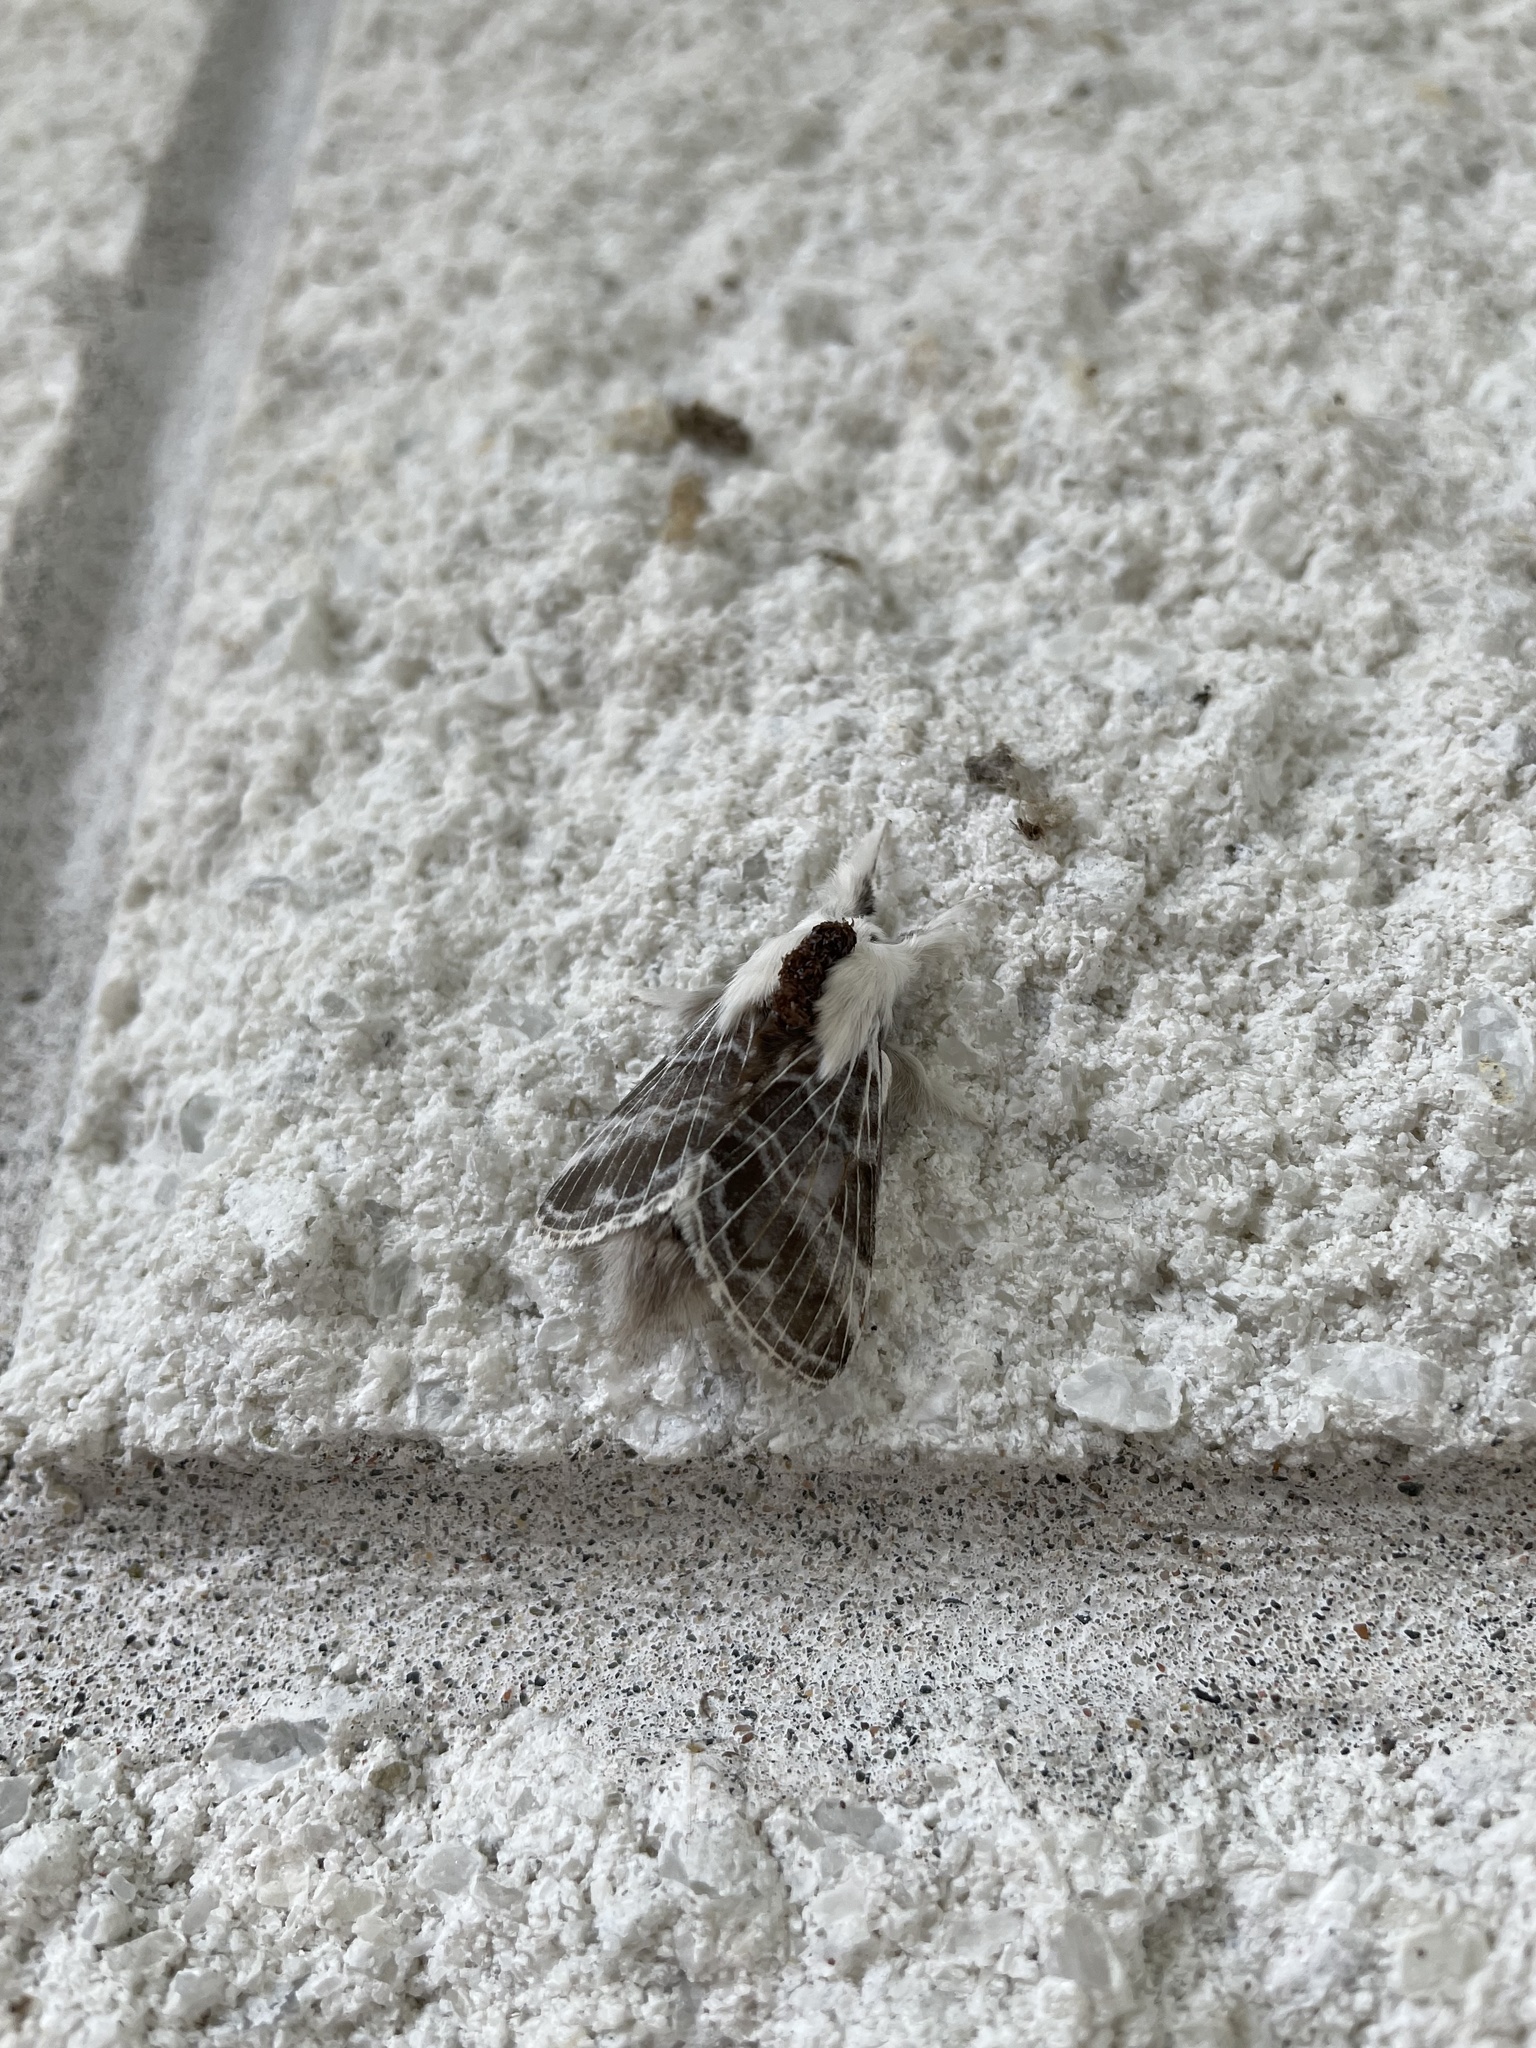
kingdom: Animalia
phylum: Arthropoda
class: Insecta
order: Lepidoptera
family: Lasiocampidae
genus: Tolype
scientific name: Tolype velleda
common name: Large tolype moth
